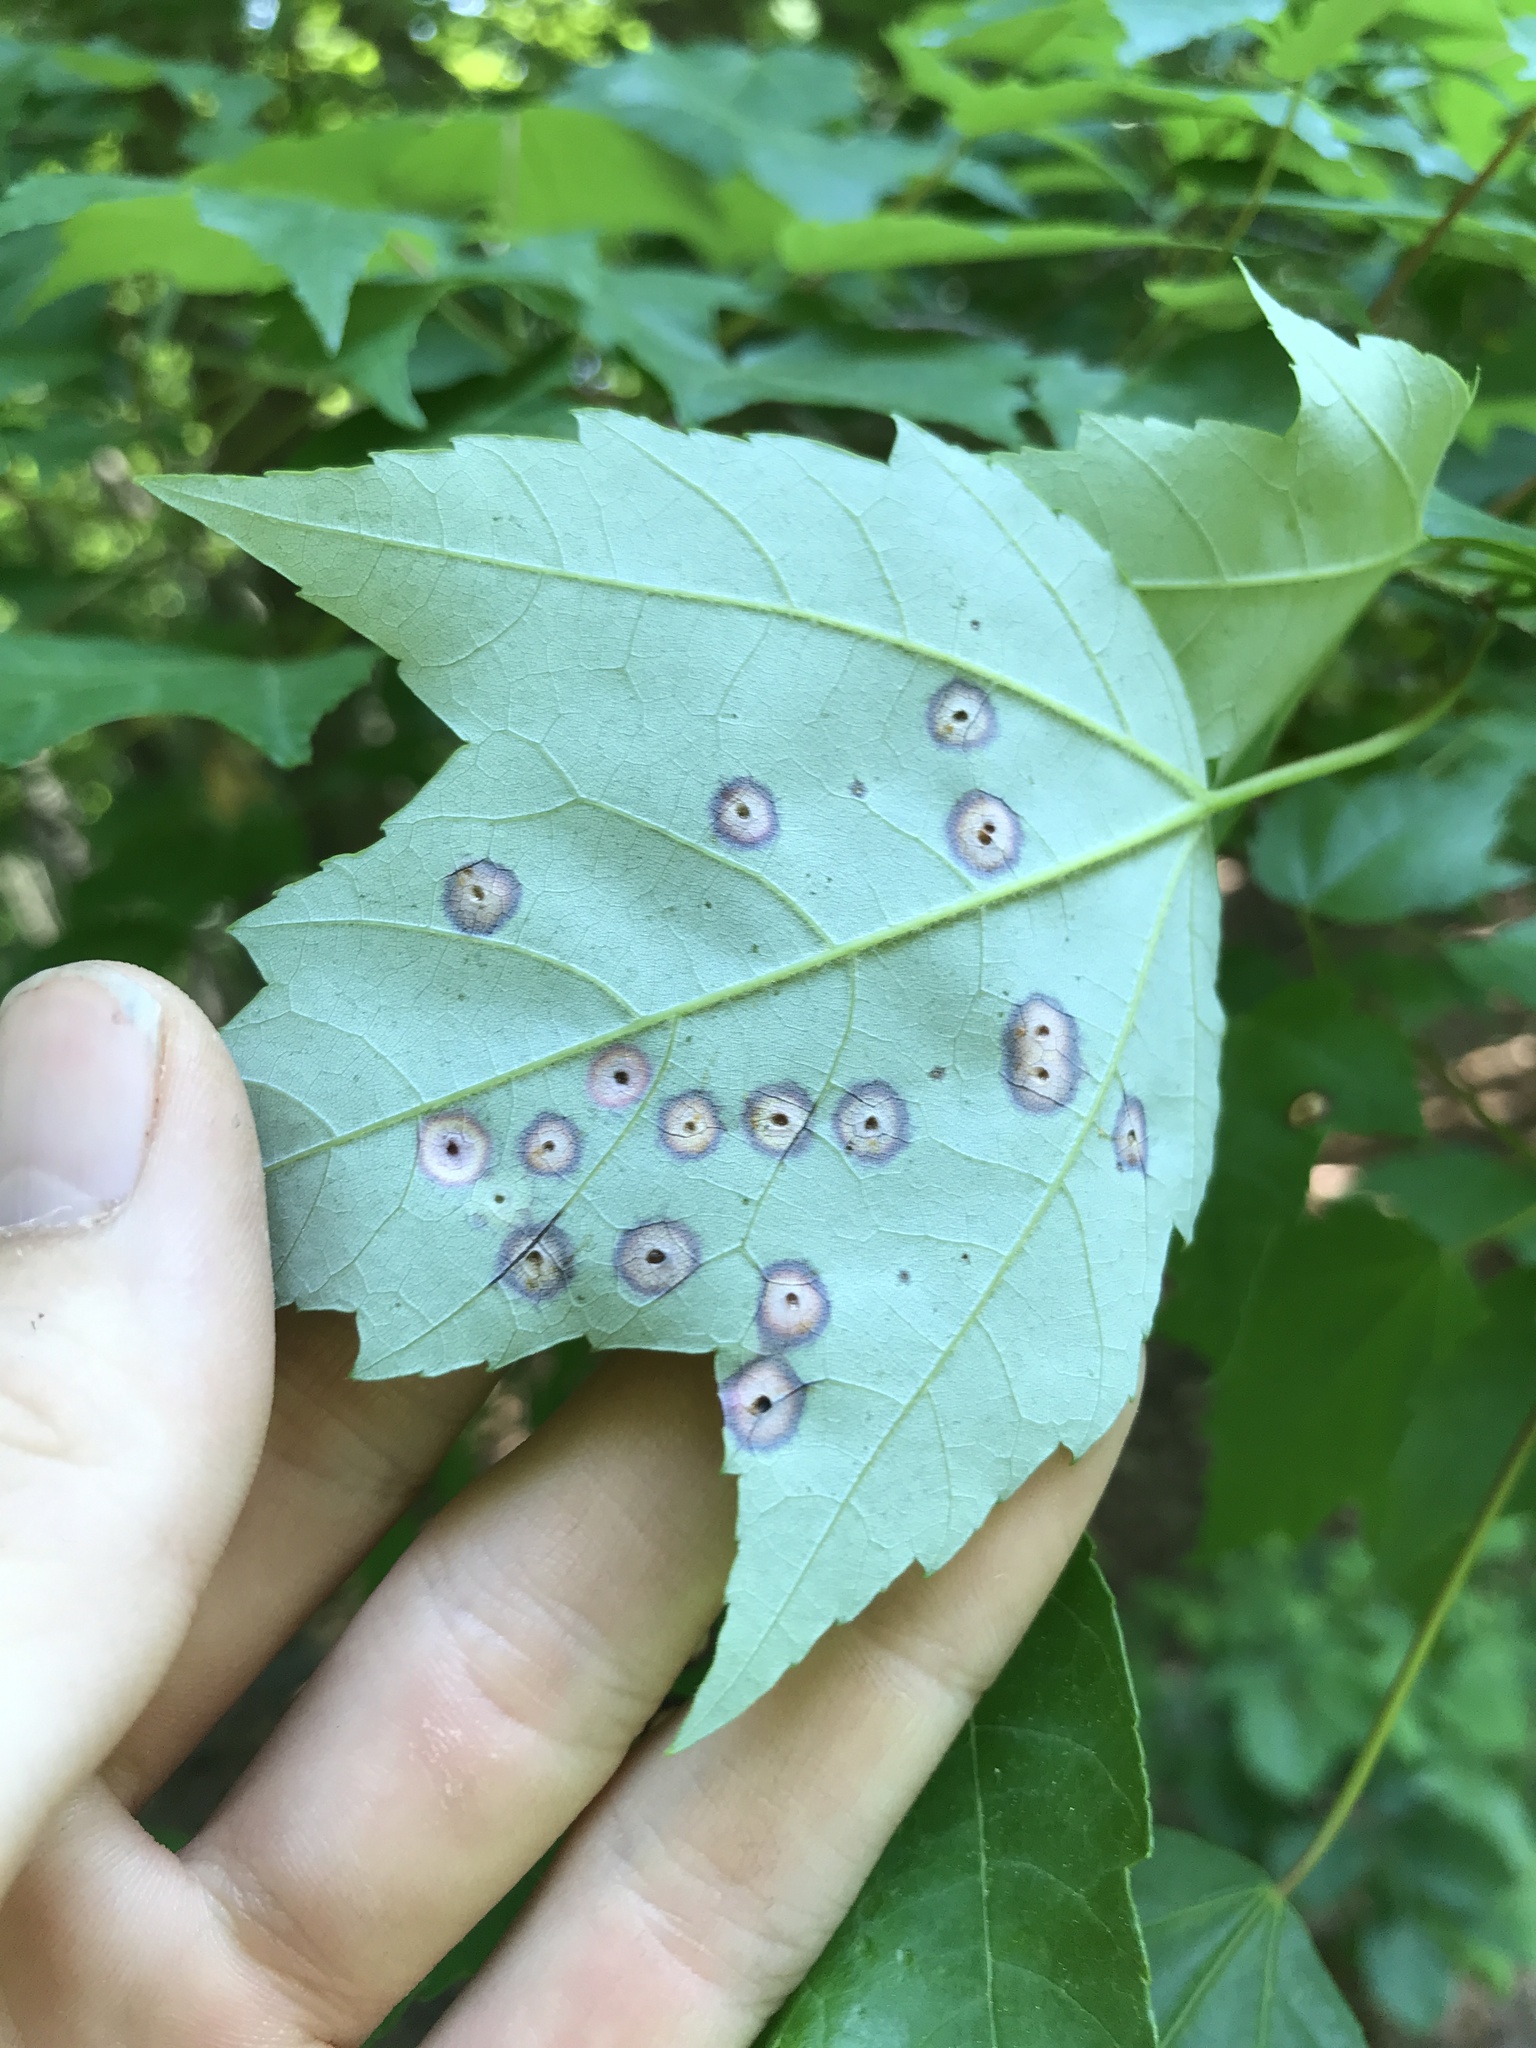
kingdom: Animalia
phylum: Arthropoda
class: Insecta
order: Diptera
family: Cecidomyiidae
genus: Acericecis
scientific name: Acericecis ocellaris
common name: Ocellate gall midge
